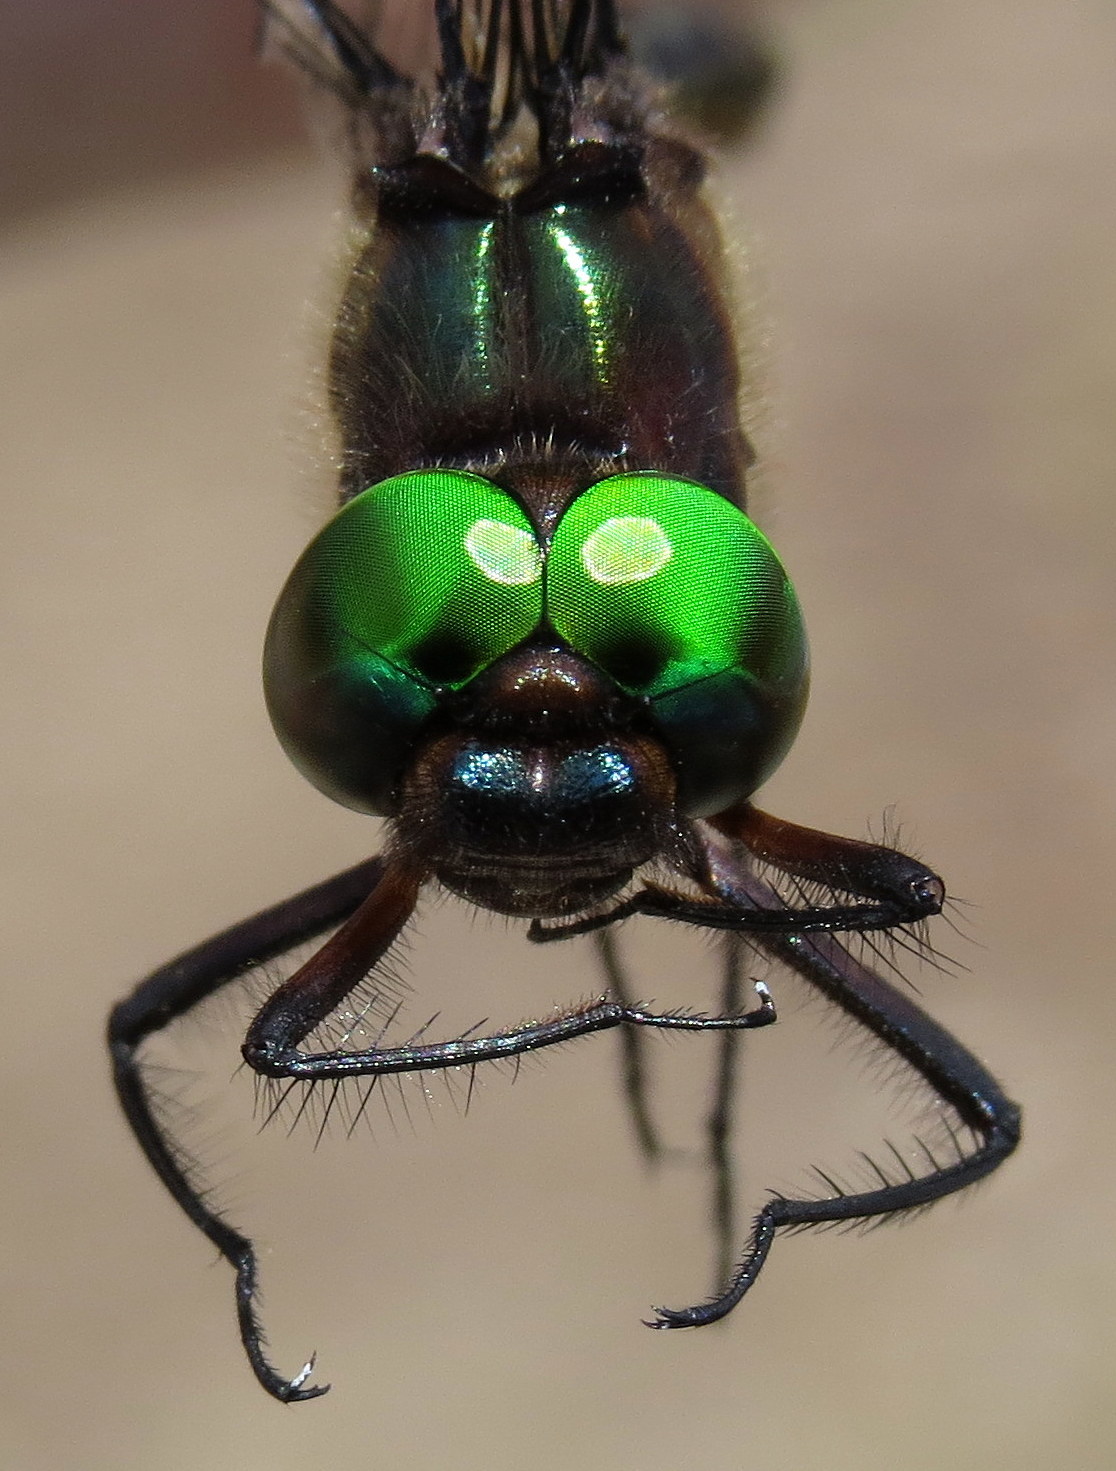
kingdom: Animalia
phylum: Arthropoda
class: Insecta
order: Odonata
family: Corduliidae
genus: Somatochlora
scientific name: Somatochlora linearis
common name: Mocha emerald
